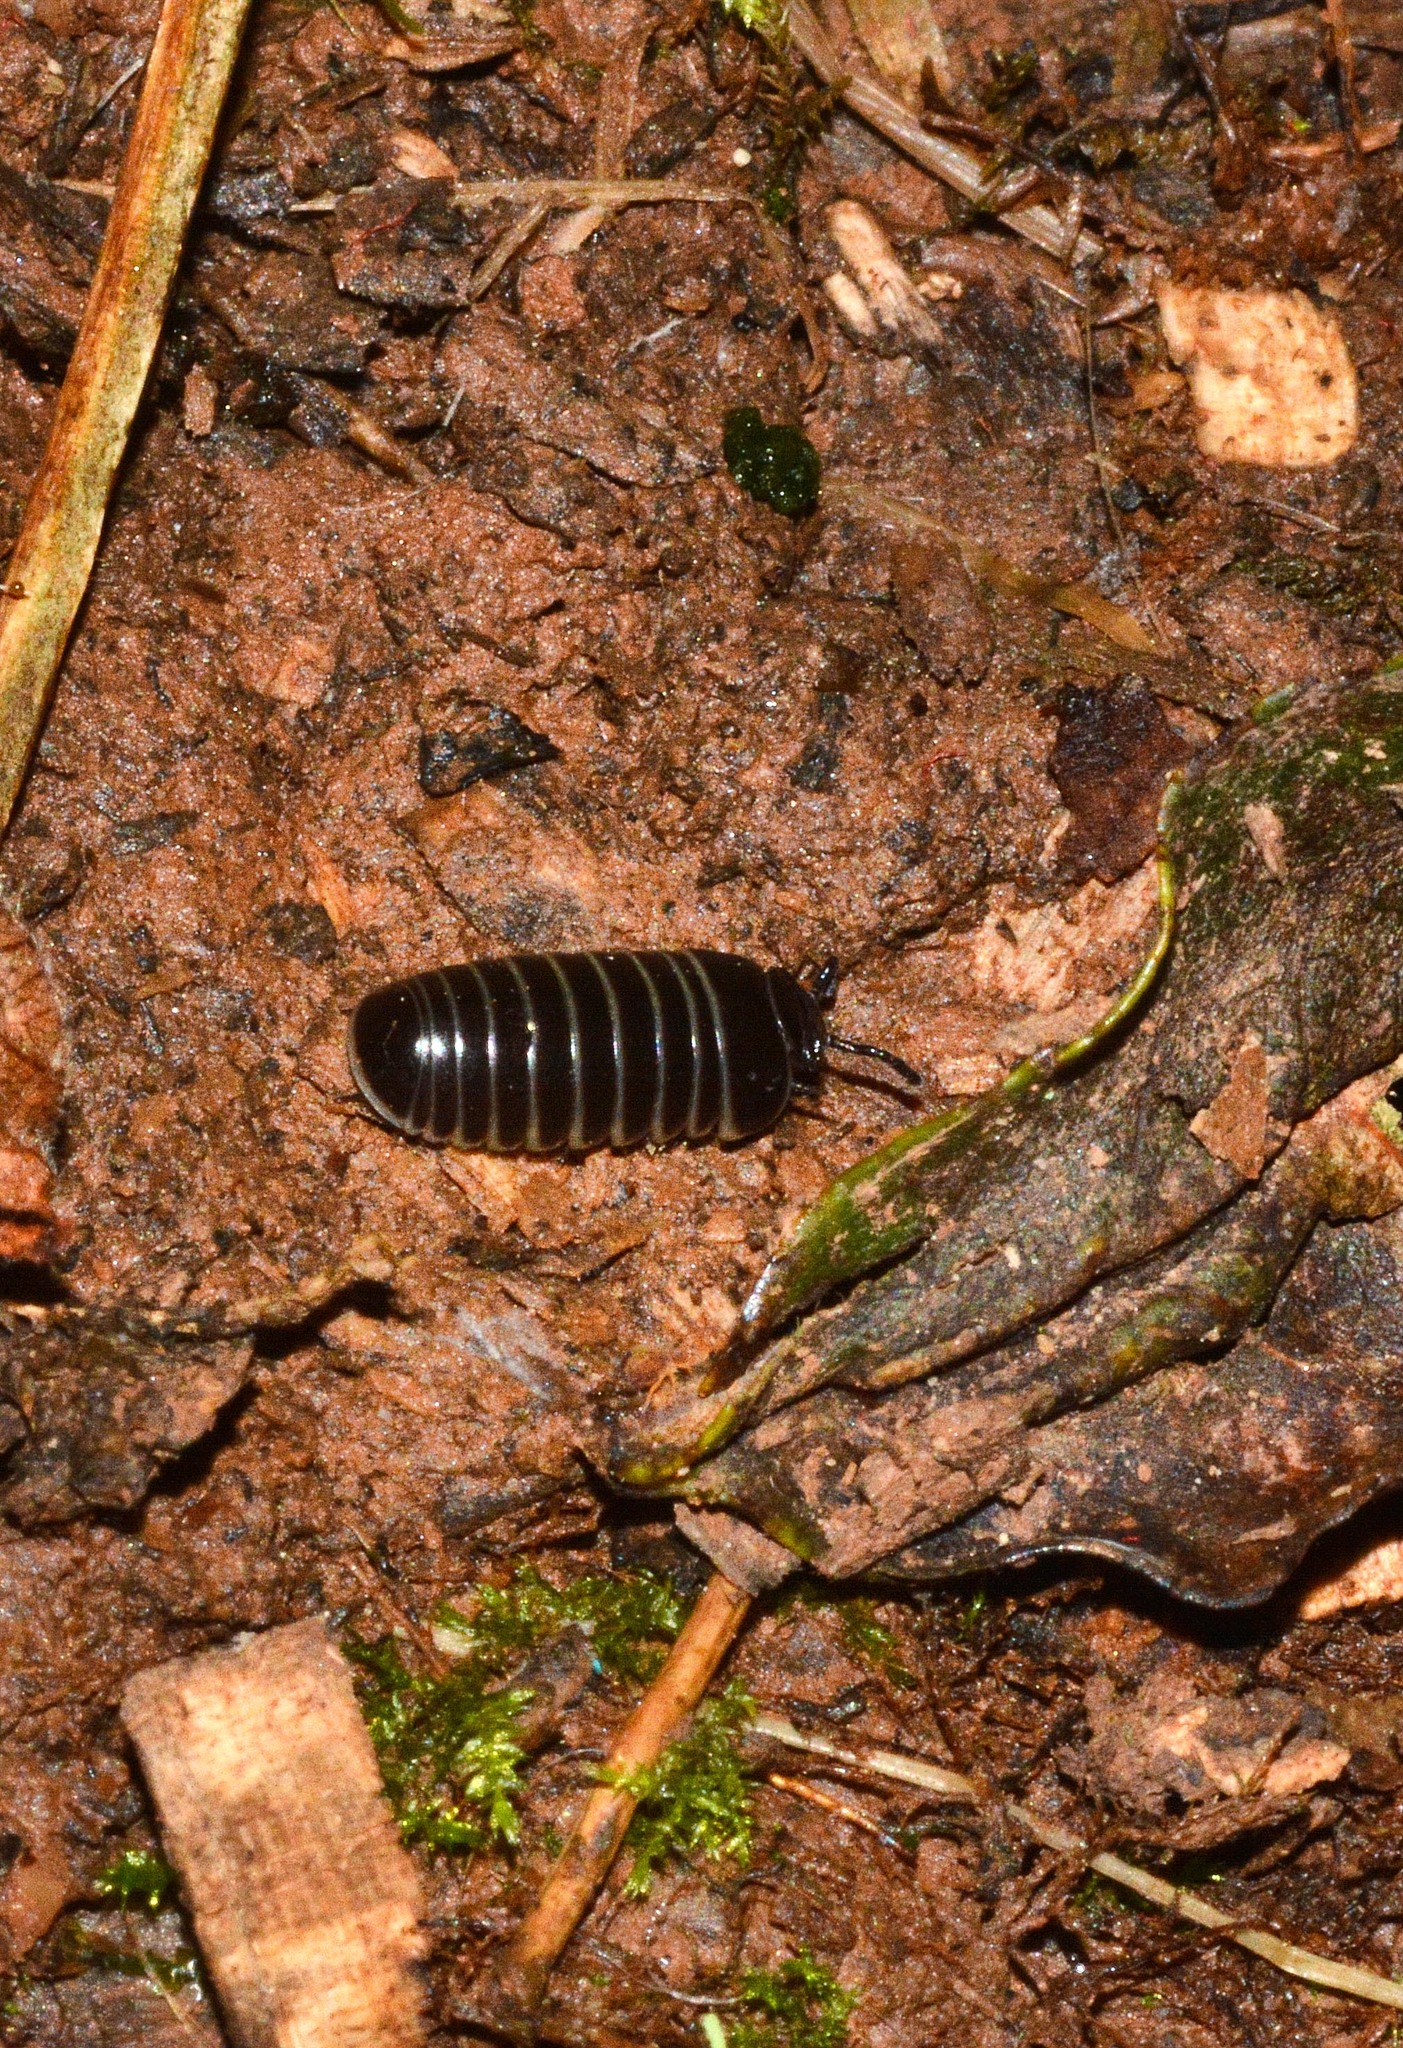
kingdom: Animalia
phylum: Arthropoda
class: Diplopoda
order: Glomerida
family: Glomeridae
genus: Glomeris
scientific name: Glomeris marginata
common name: Bordered pill millipede
